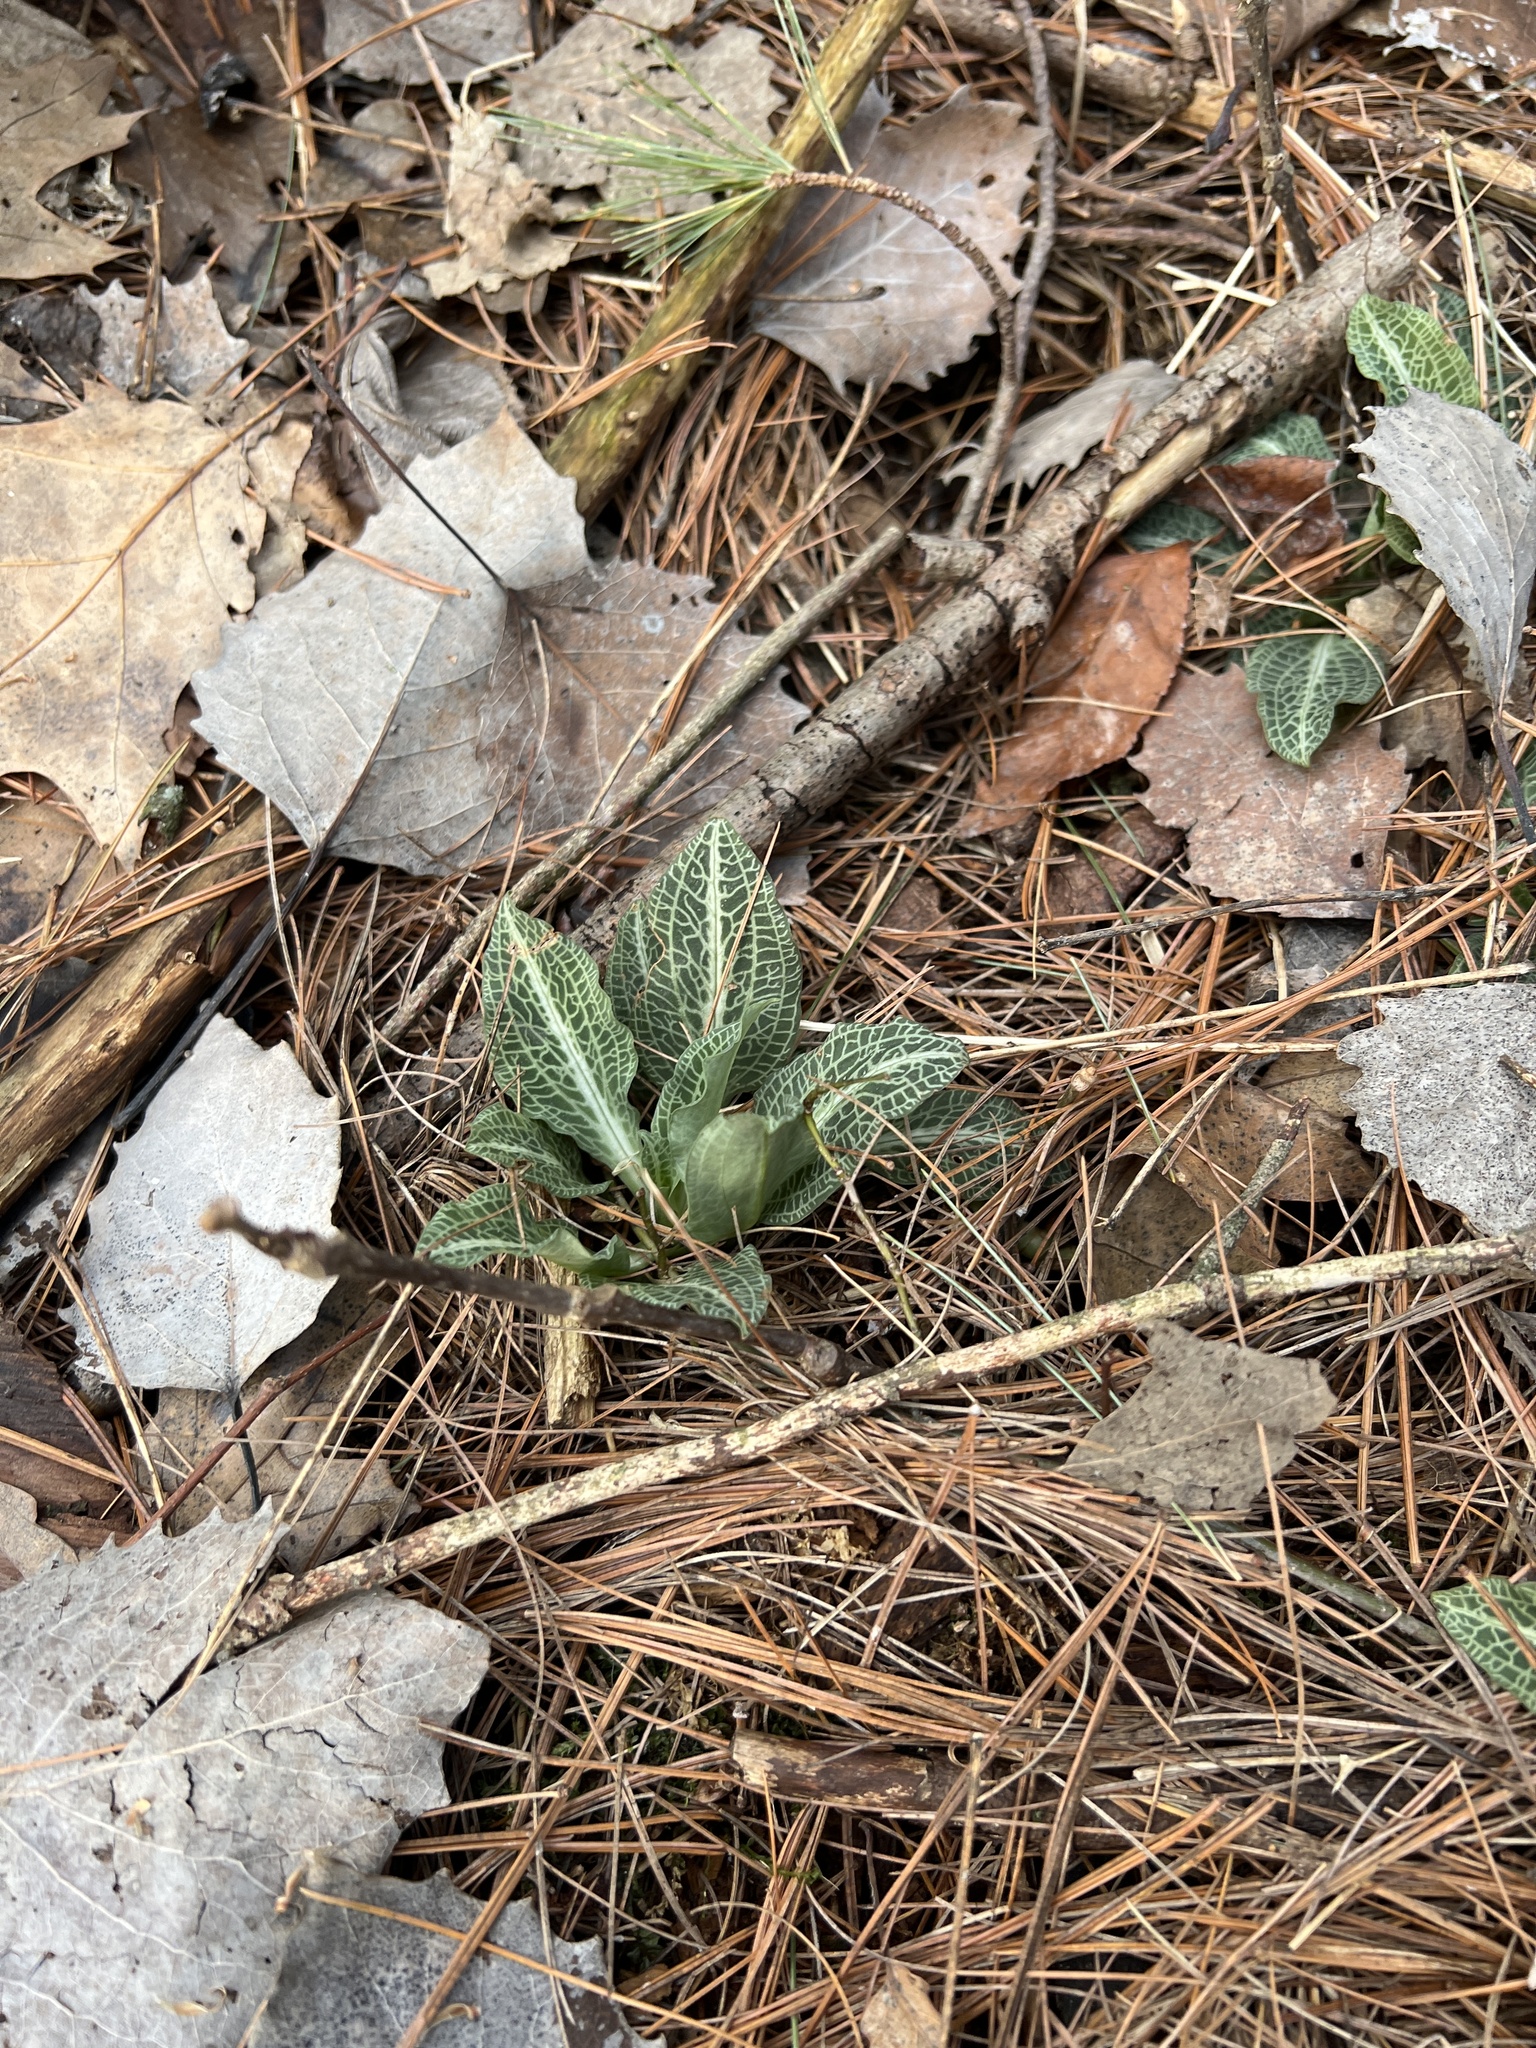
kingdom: Plantae
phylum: Tracheophyta
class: Liliopsida
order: Asparagales
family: Orchidaceae
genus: Goodyera
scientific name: Goodyera pubescens
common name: Downy rattlesnake-plantain
